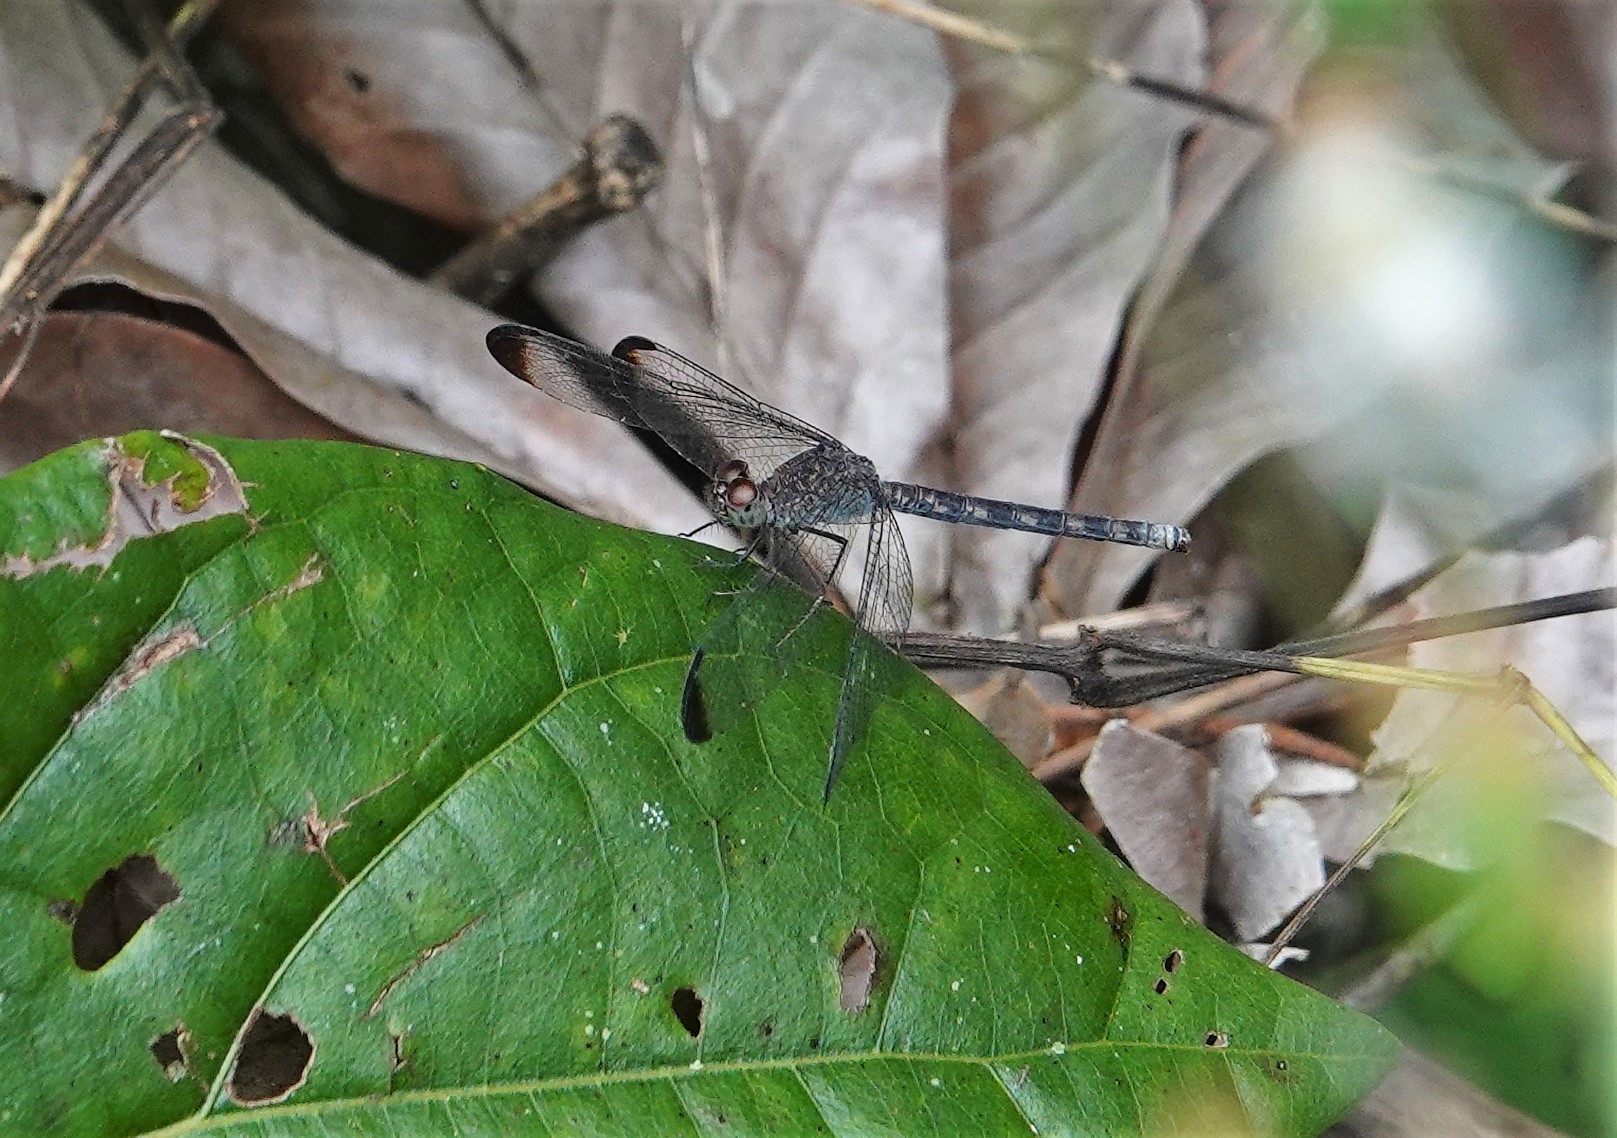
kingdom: Animalia
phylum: Arthropoda
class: Insecta
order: Odonata
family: Libellulidae
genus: Uracis
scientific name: Uracis imbuta
